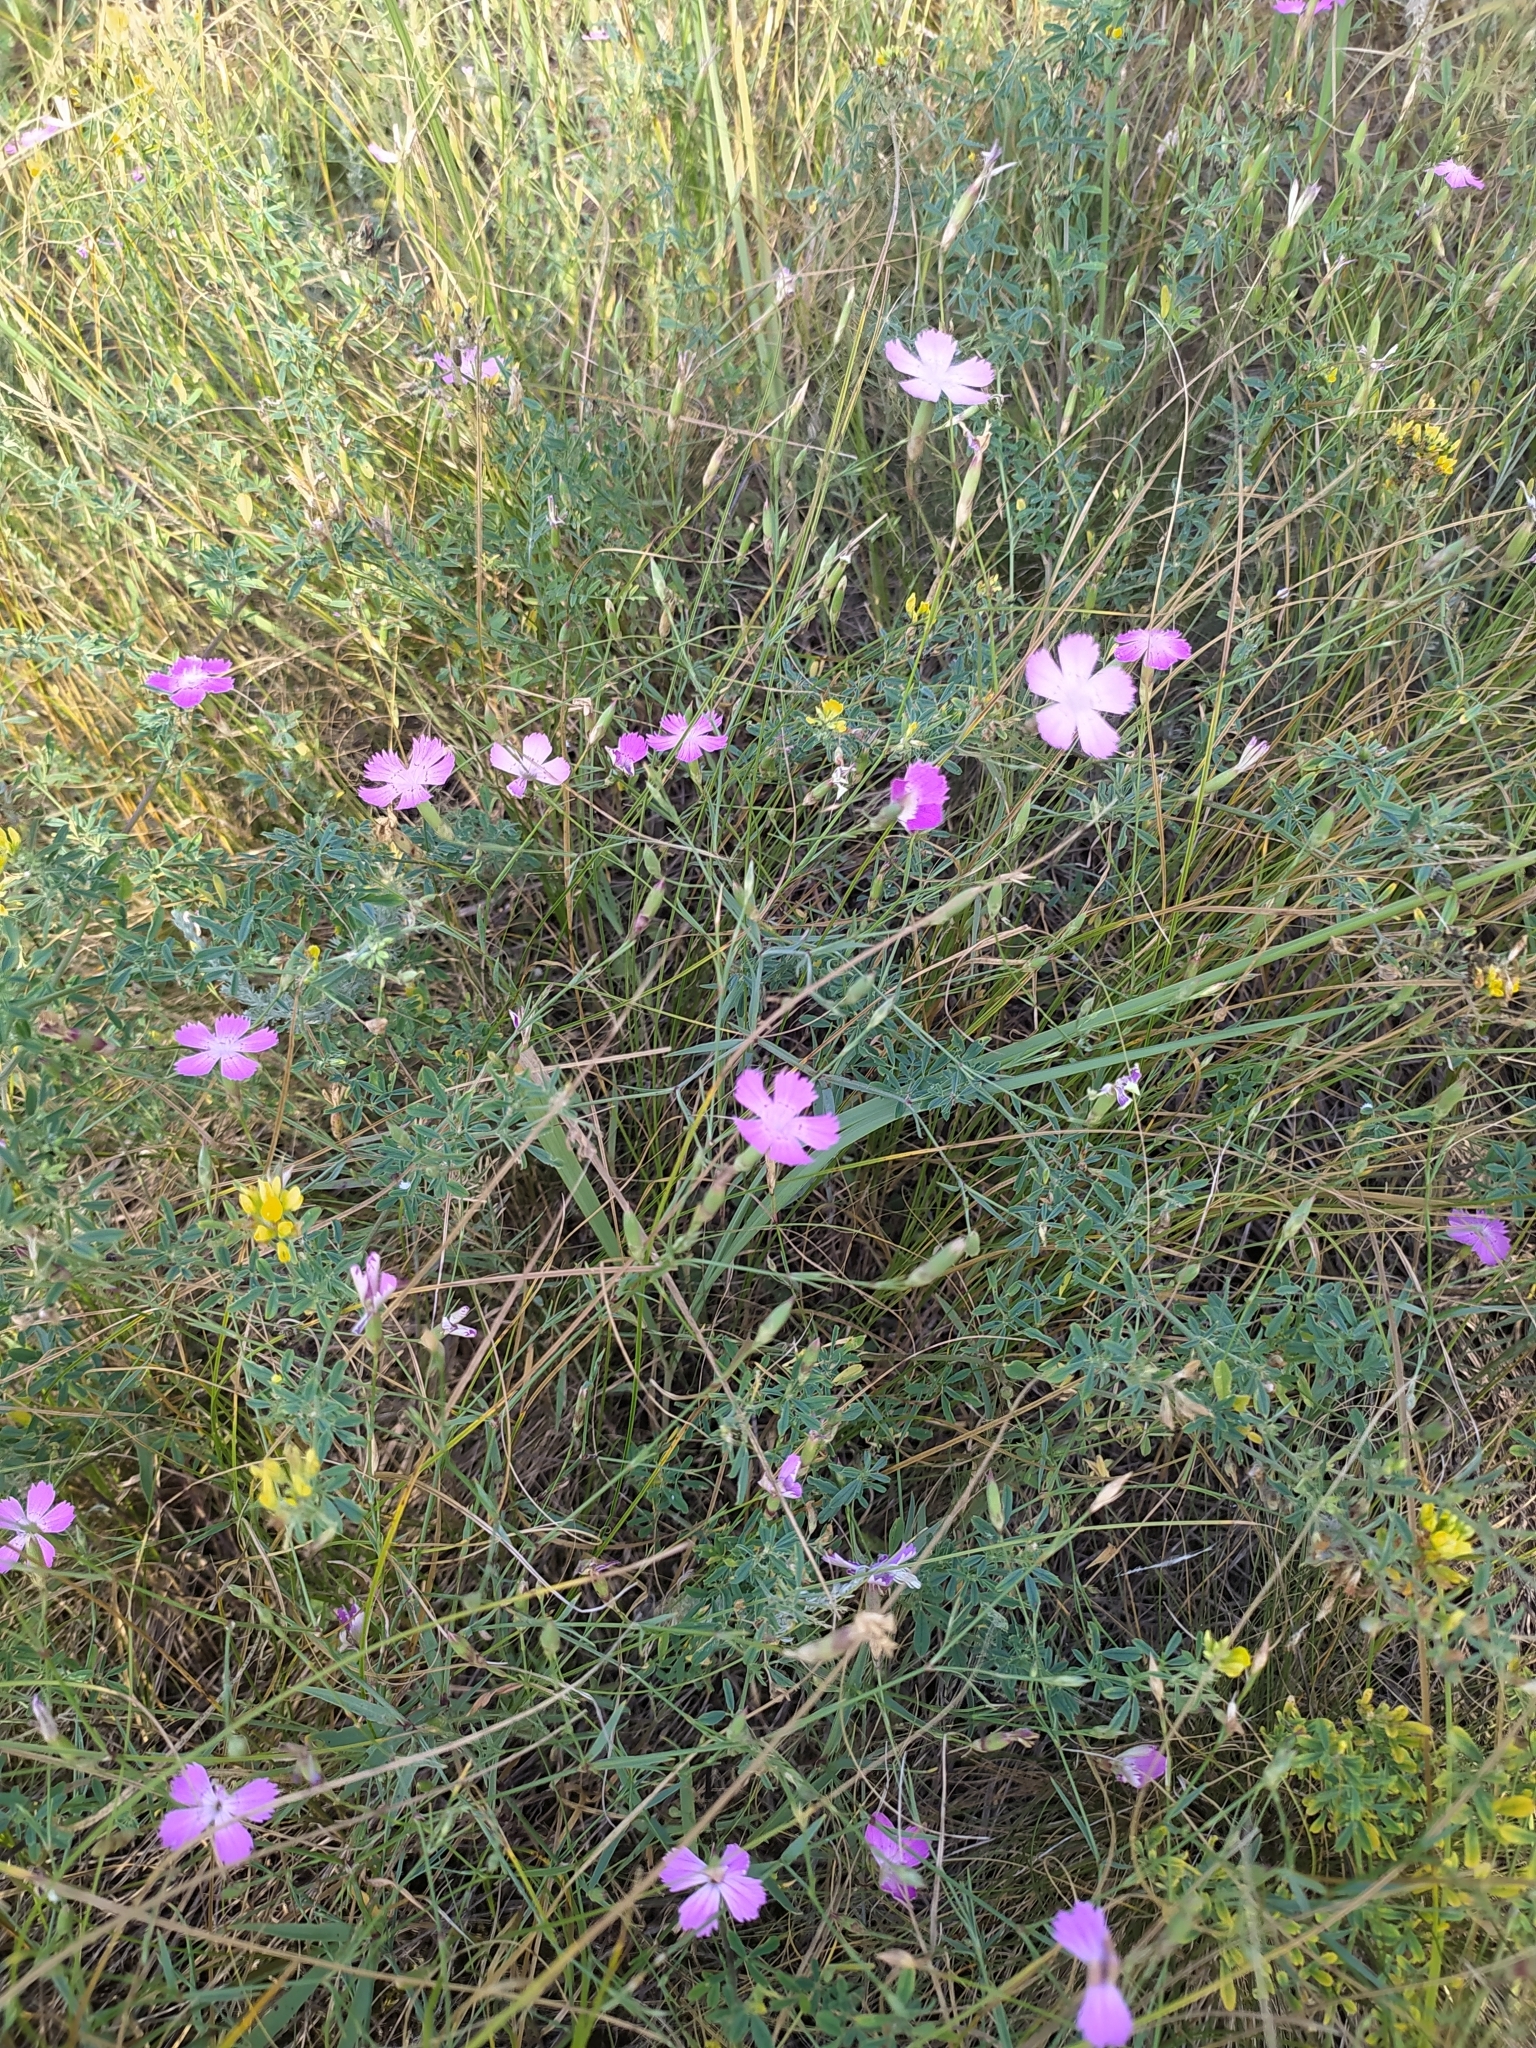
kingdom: Plantae
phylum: Tracheophyta
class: Magnoliopsida
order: Caryophyllales
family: Caryophyllaceae
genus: Dianthus
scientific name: Dianthus campestris
